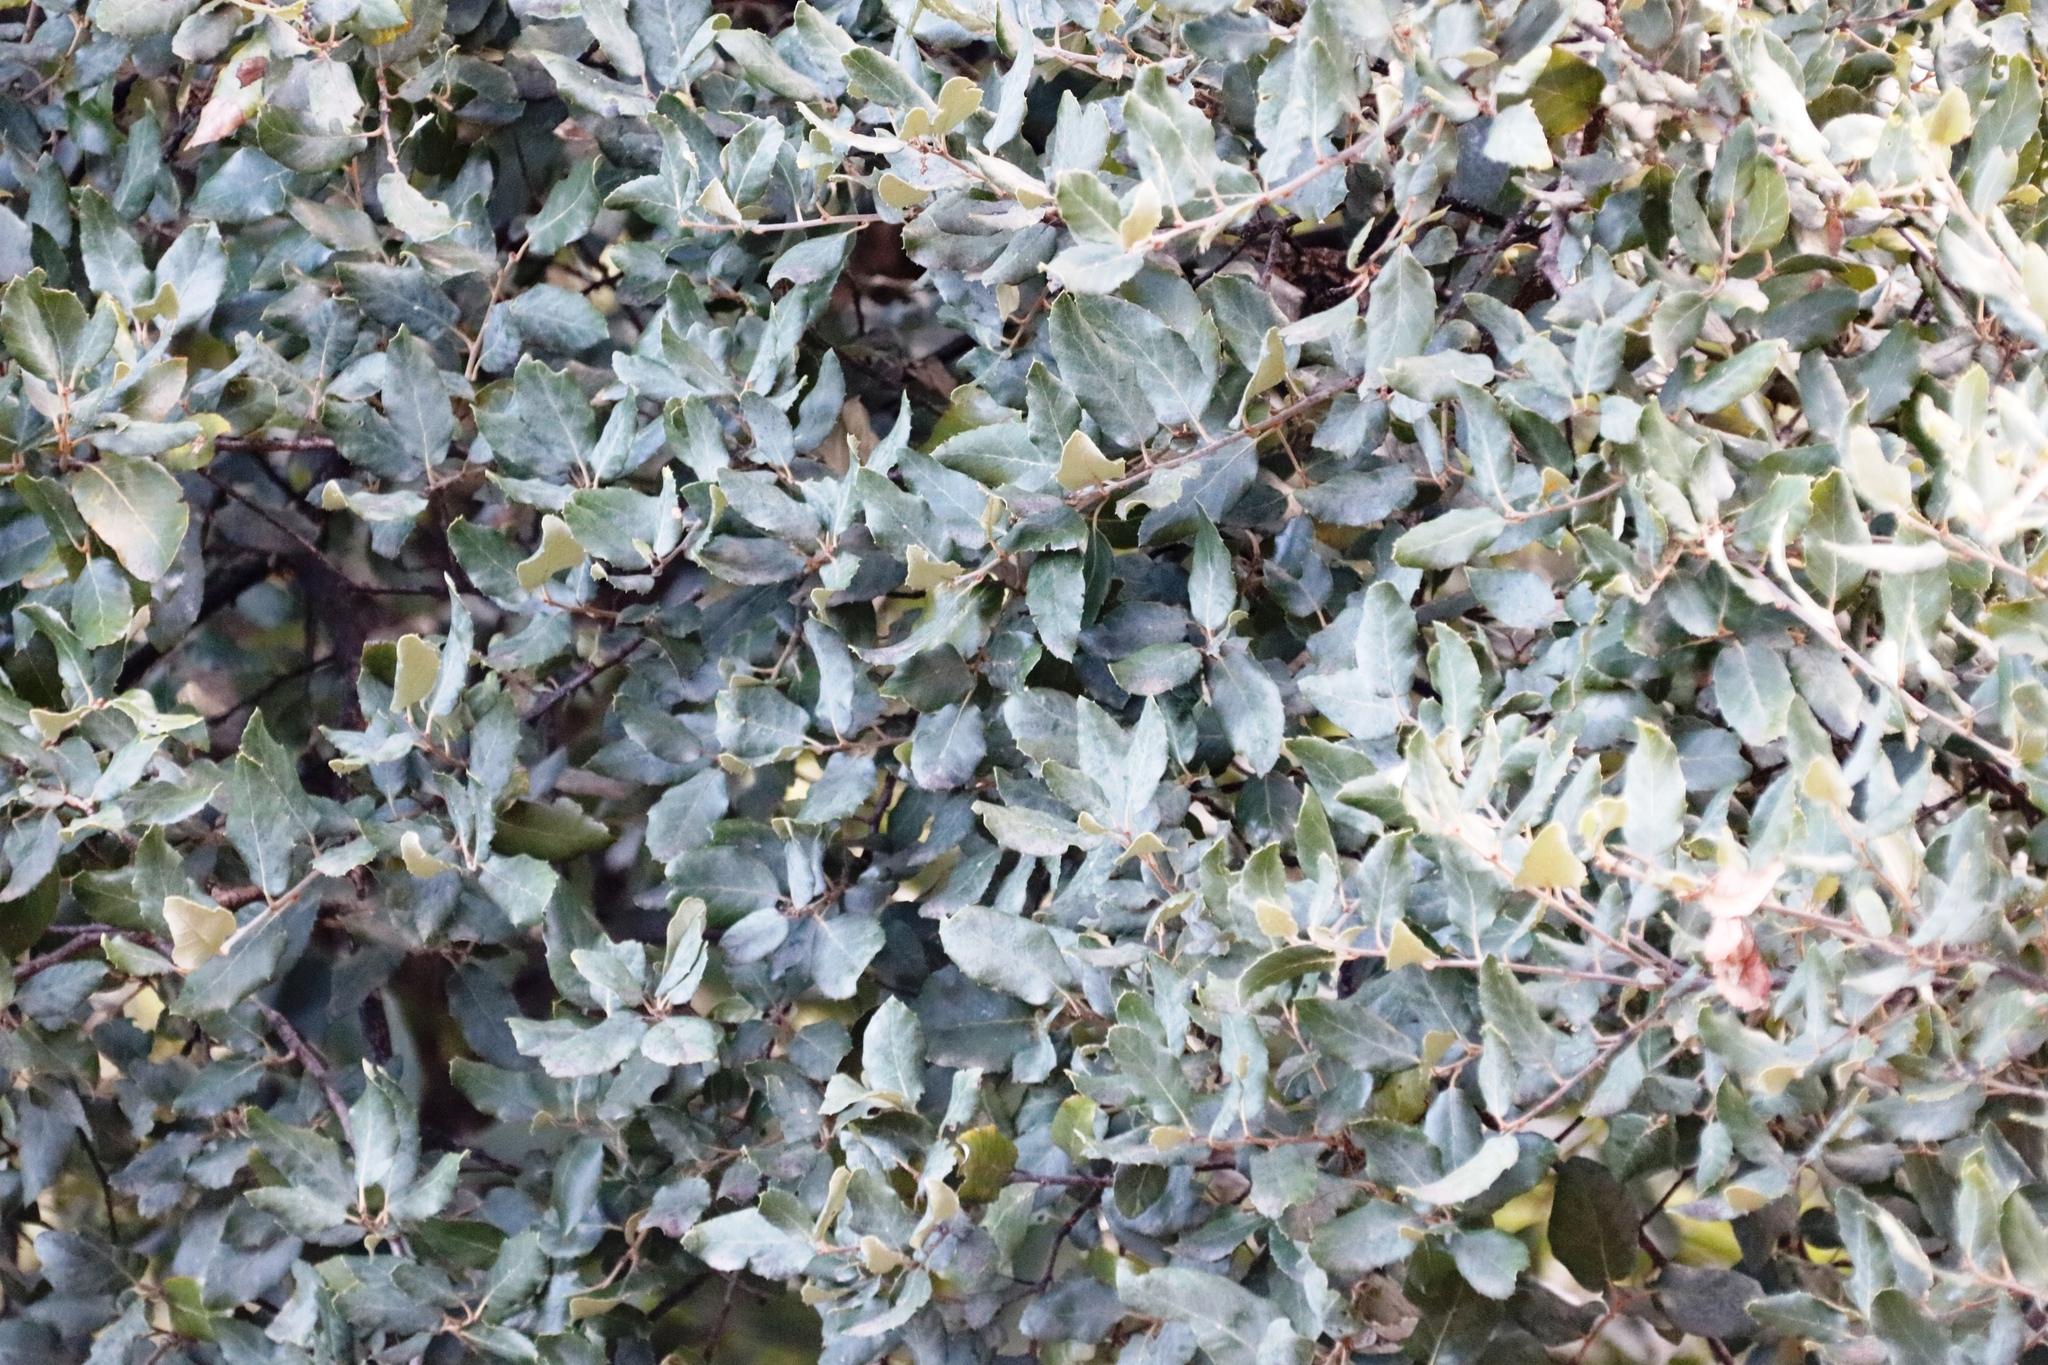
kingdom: Plantae
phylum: Tracheophyta
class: Magnoliopsida
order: Fagales
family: Fagaceae
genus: Quercus
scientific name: Quercus suber
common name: Cork oak
